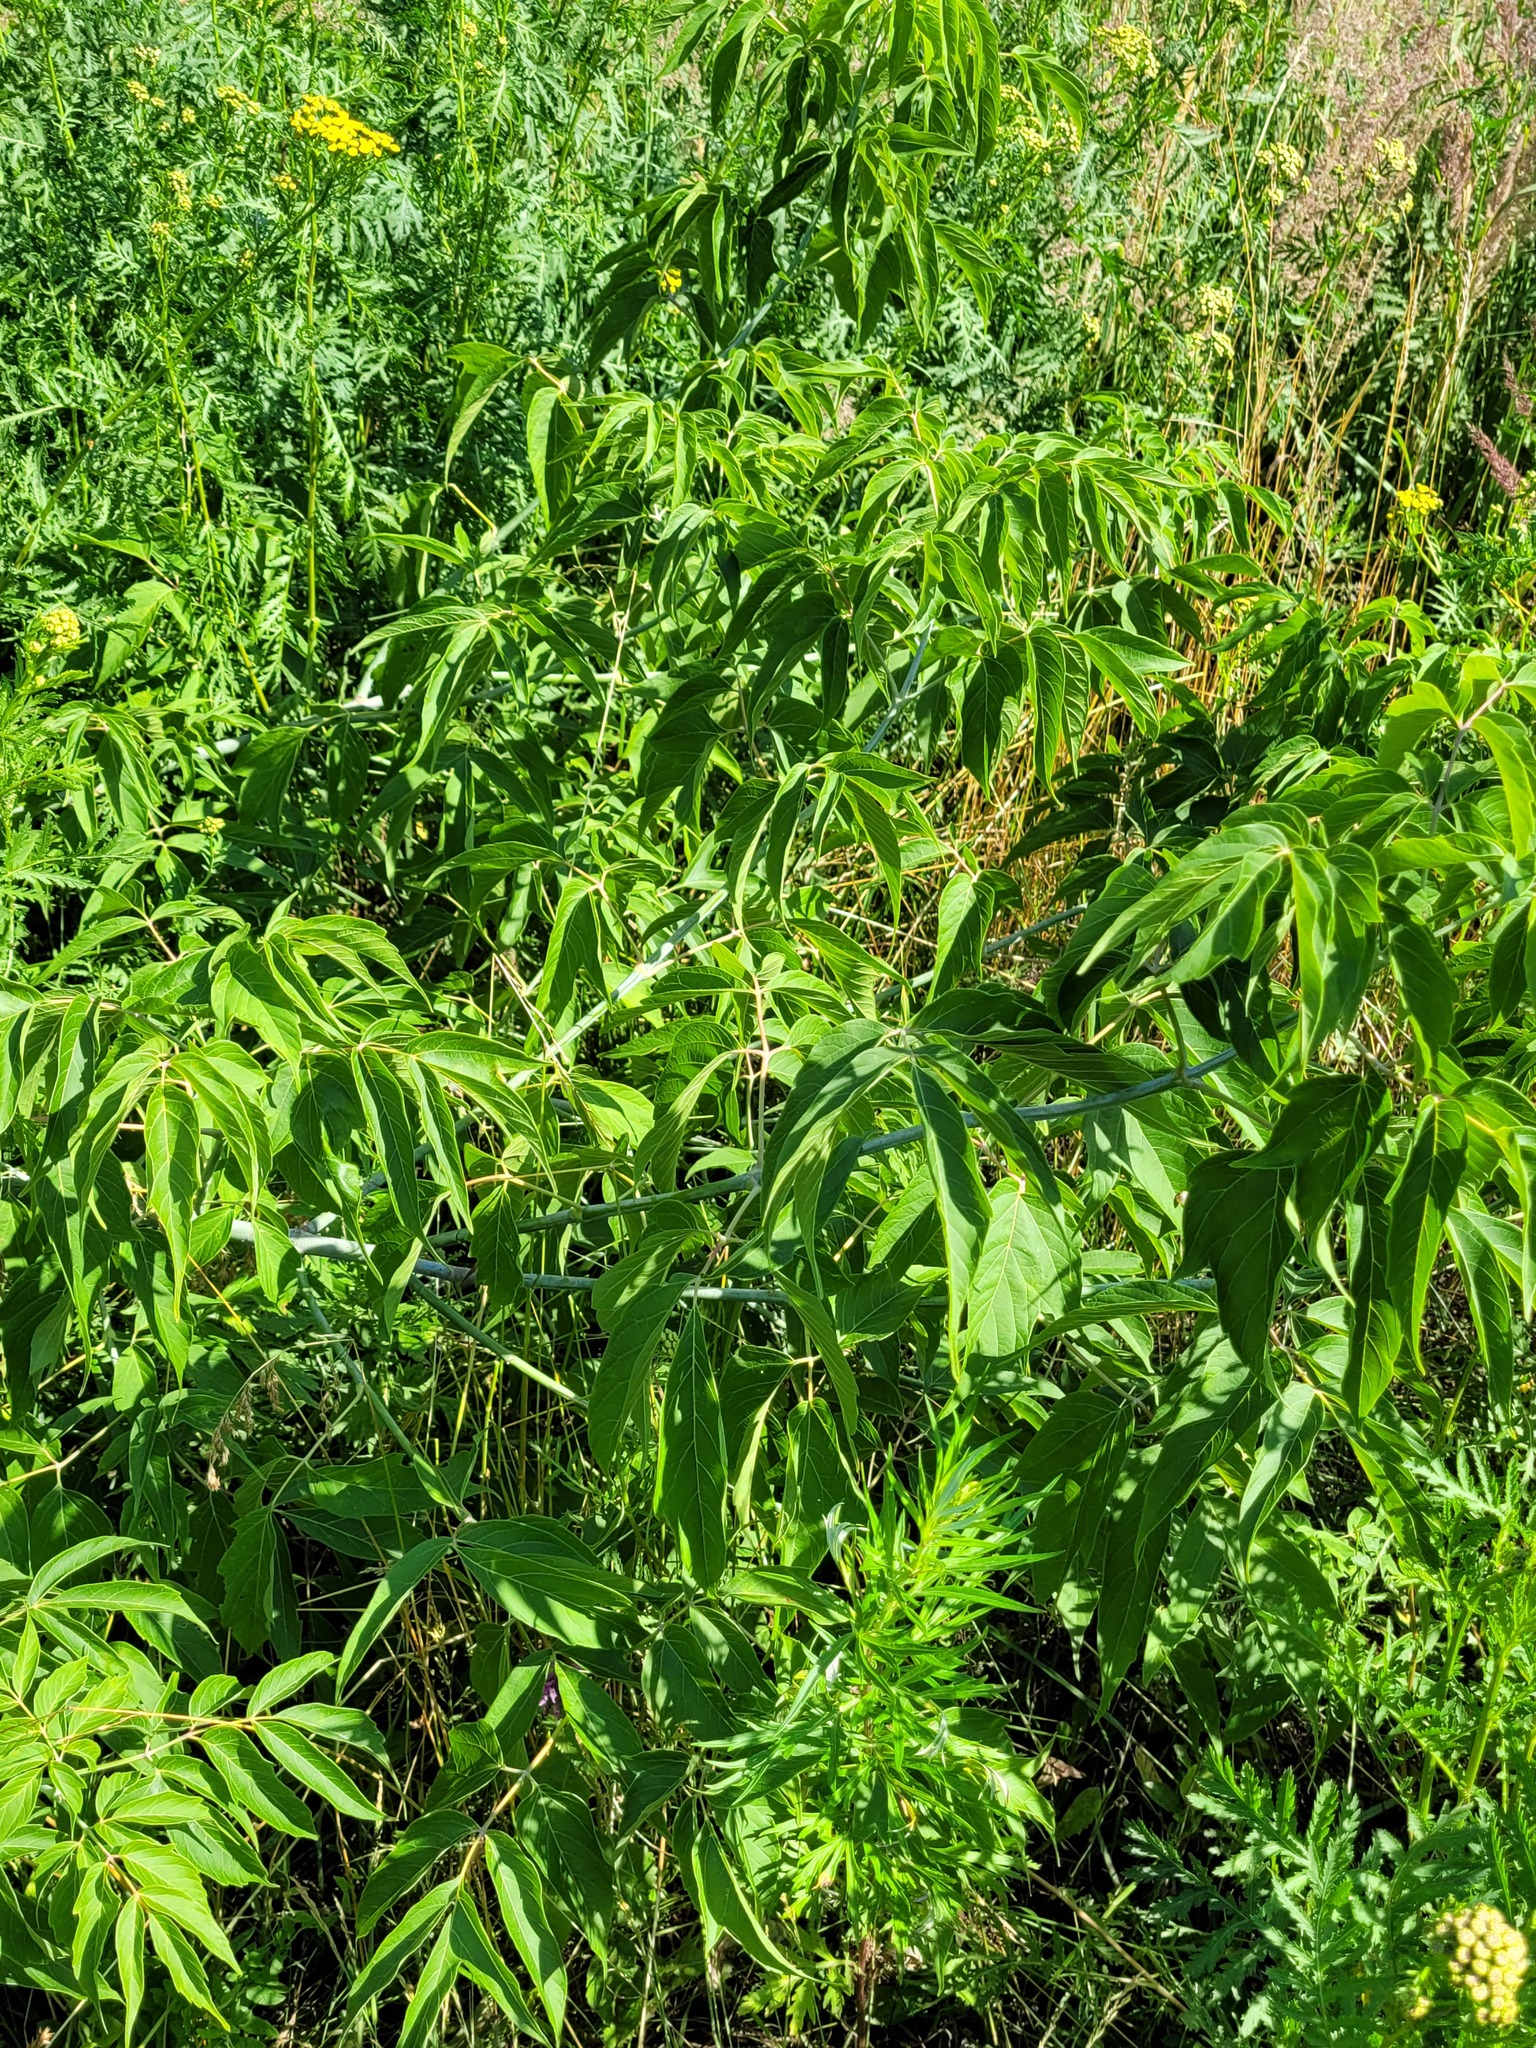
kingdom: Plantae
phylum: Tracheophyta
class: Magnoliopsida
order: Sapindales
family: Sapindaceae
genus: Acer
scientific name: Acer negundo
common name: Ashleaf maple
